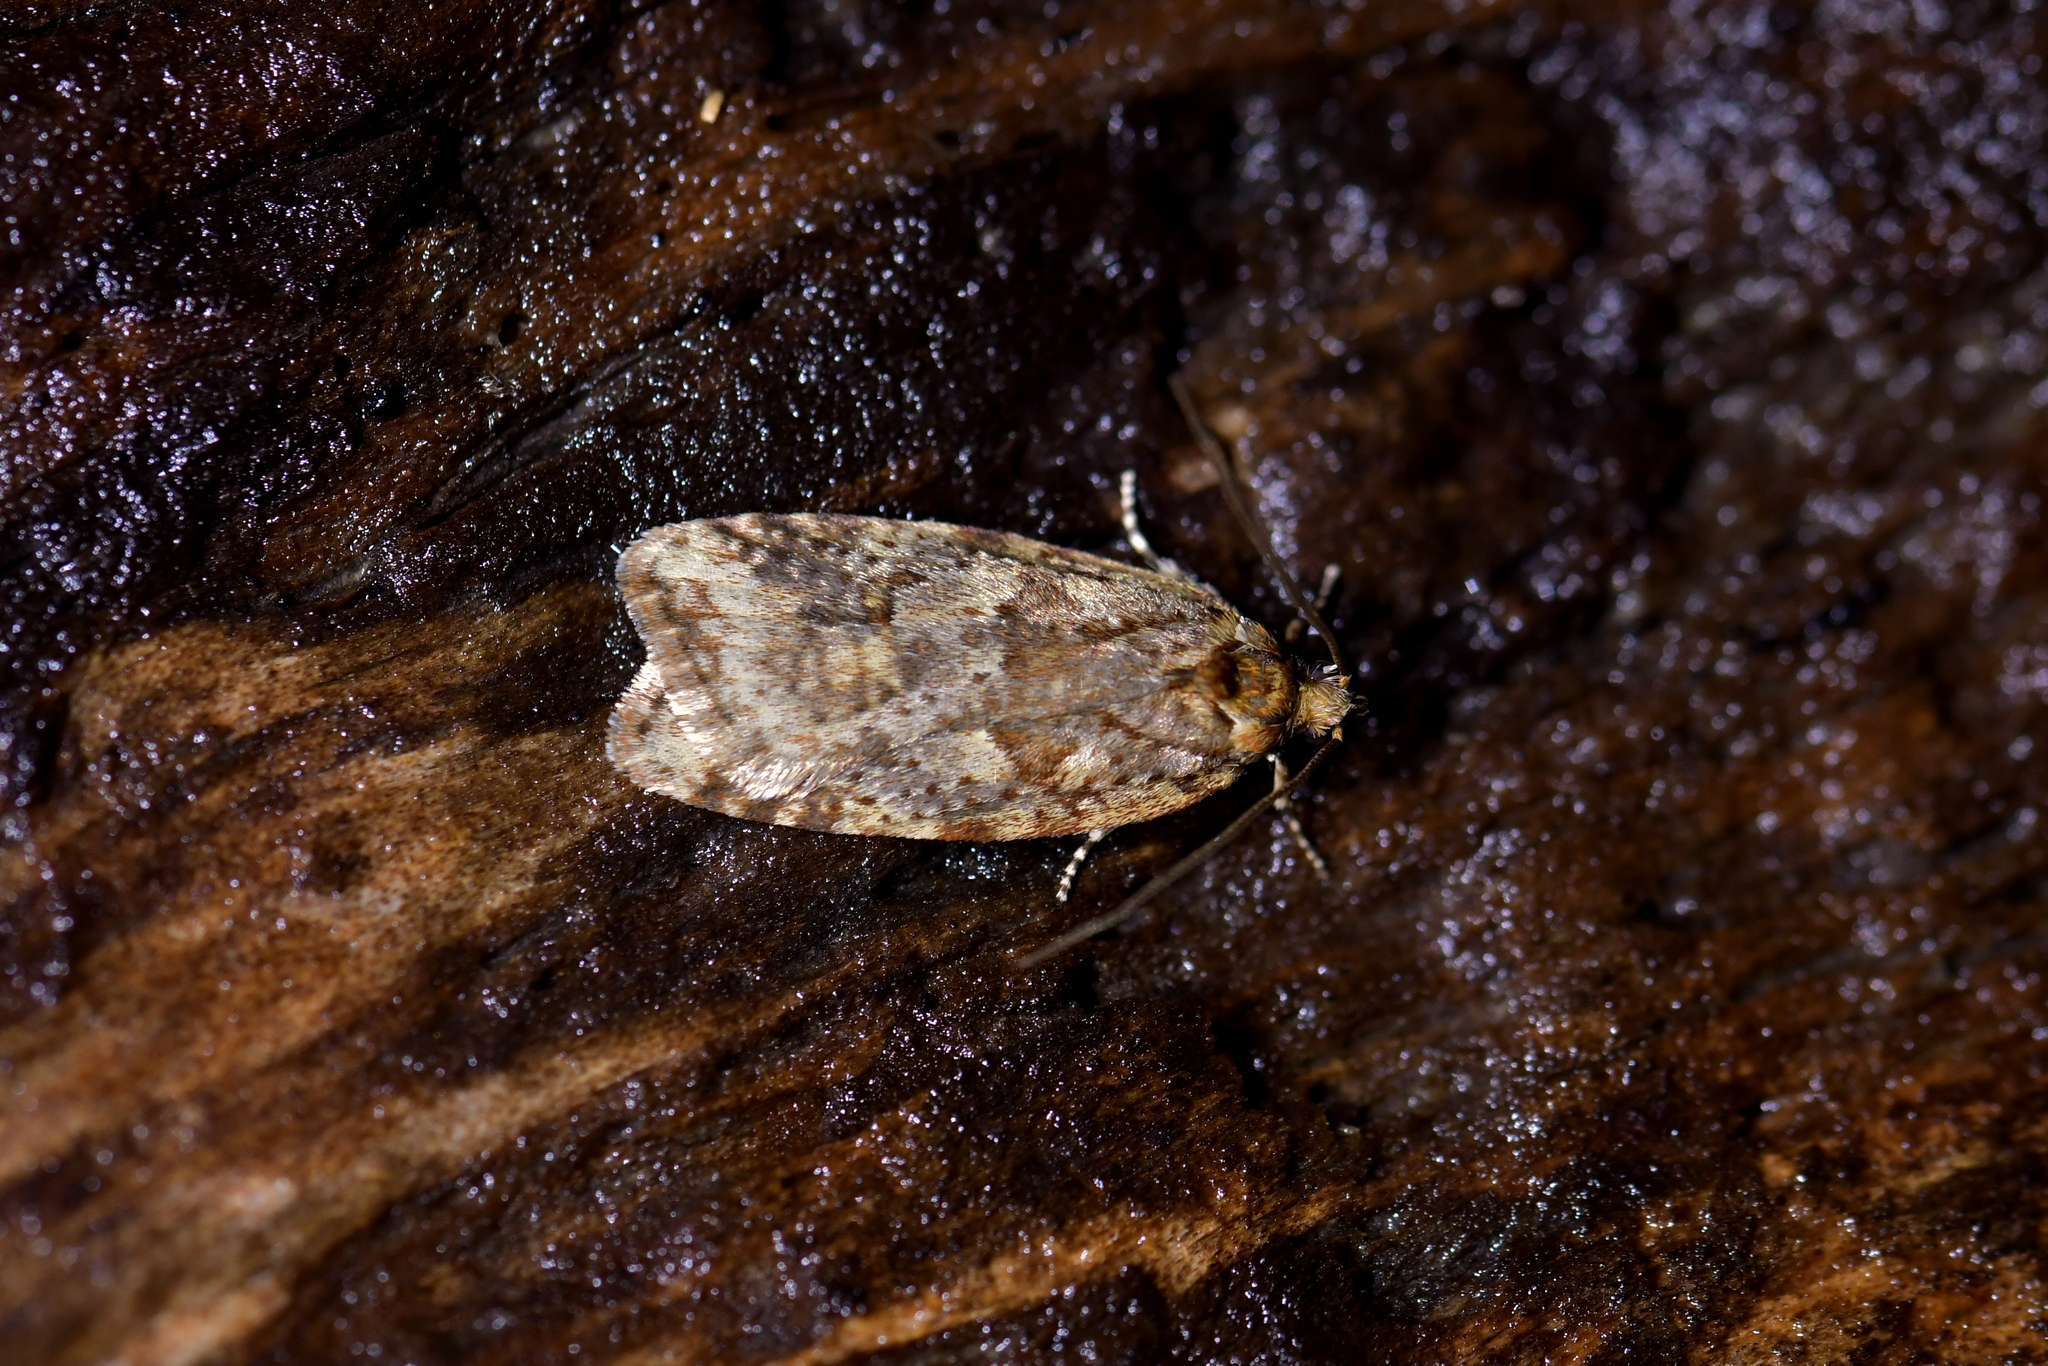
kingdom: Animalia
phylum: Arthropoda
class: Insecta
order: Lepidoptera
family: Oecophoridae
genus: Proteodes
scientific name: Proteodes profunda
